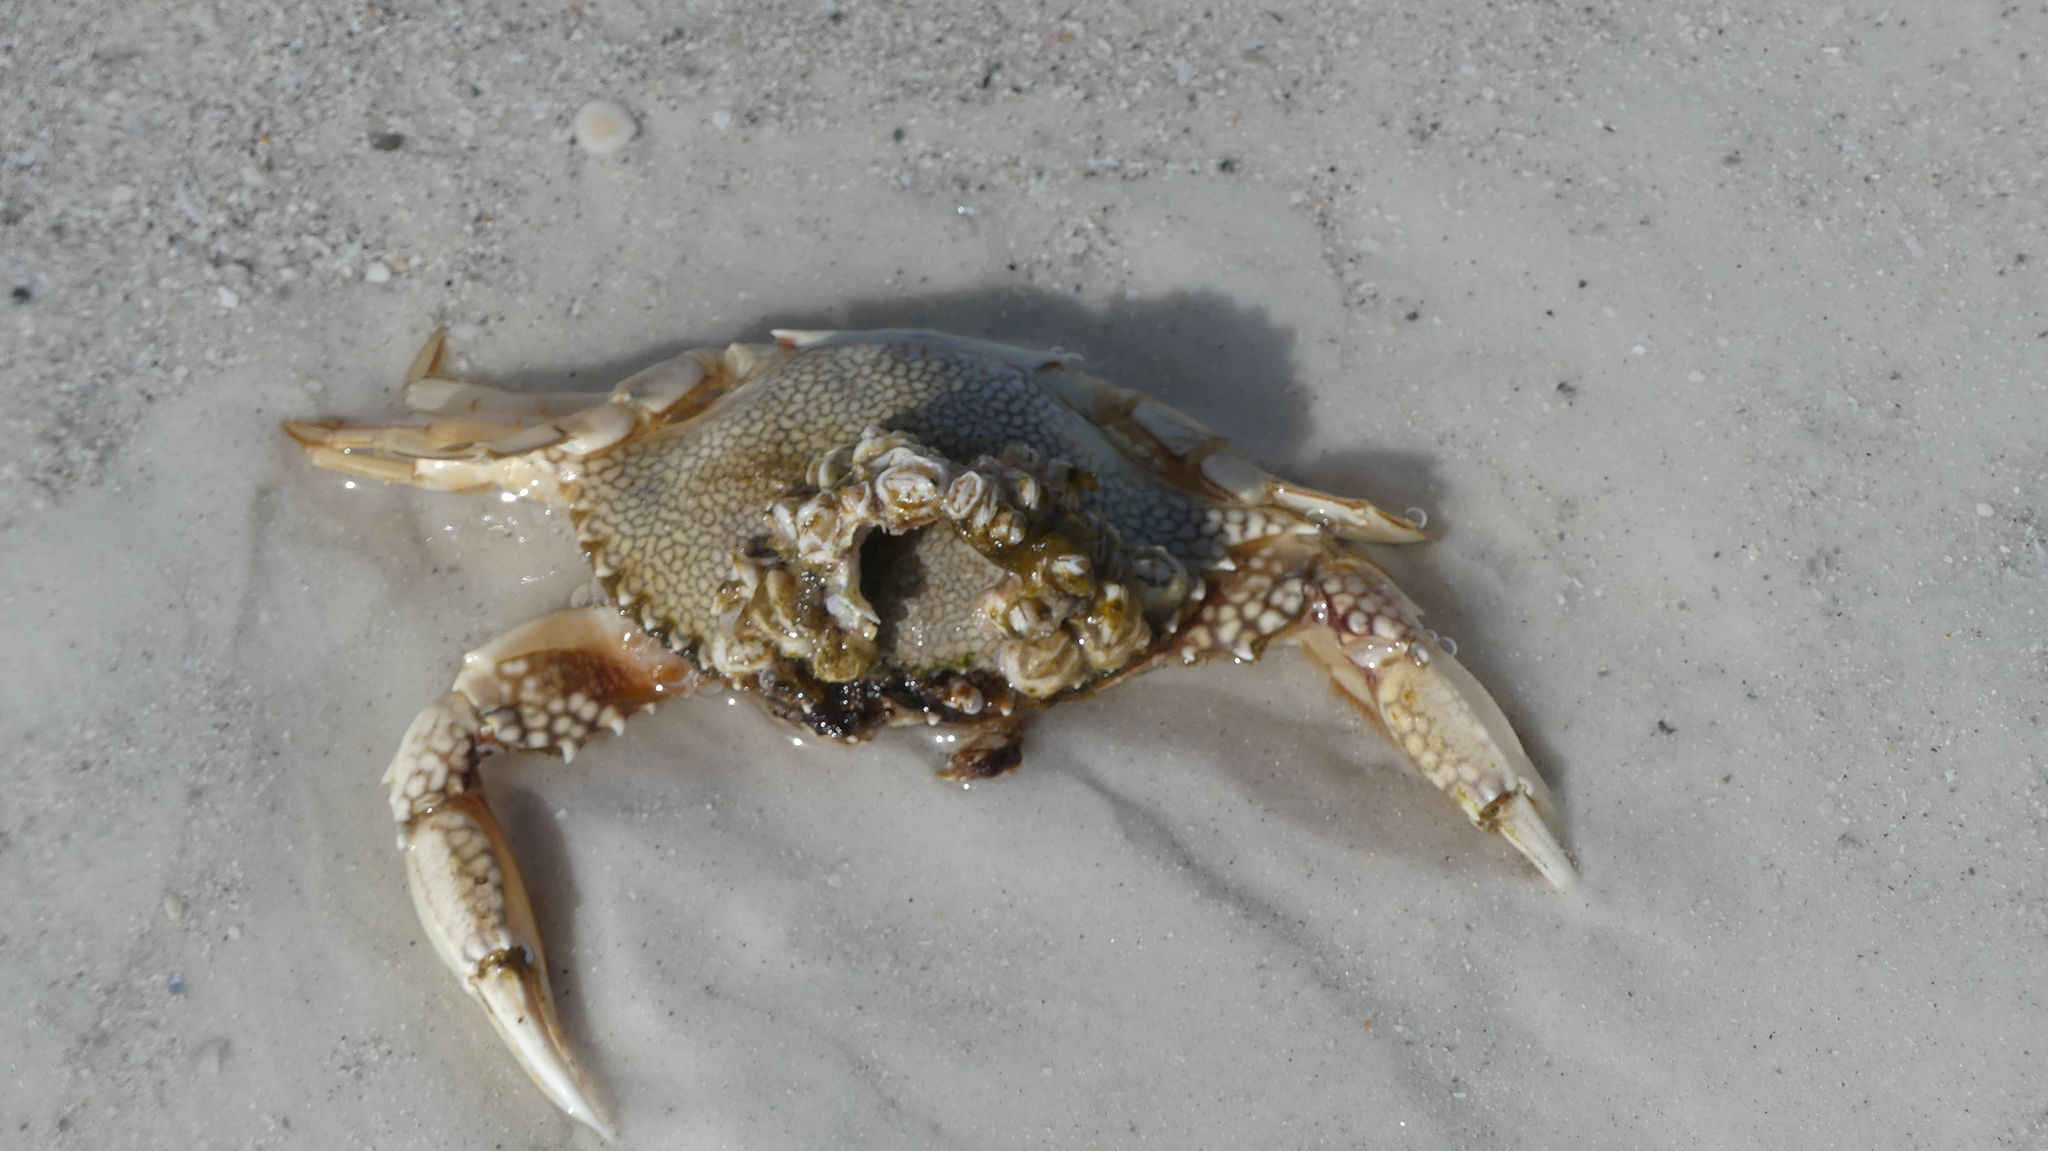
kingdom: Animalia
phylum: Arthropoda
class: Malacostraca
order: Decapoda
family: Portunidae
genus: Arenaeus
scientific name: Arenaeus cribrarius
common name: Speckled crab
